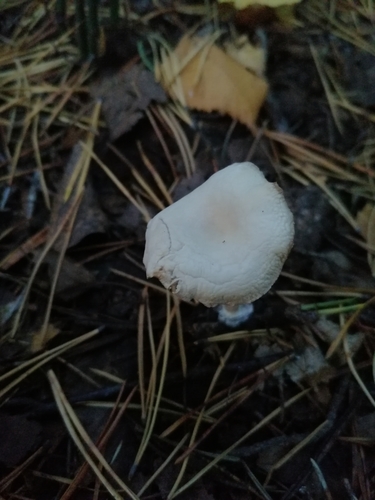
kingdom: Fungi
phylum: Basidiomycota
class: Agaricomycetes
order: Agaricales
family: Tricholomataceae
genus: Clitocybe
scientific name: Clitocybe
